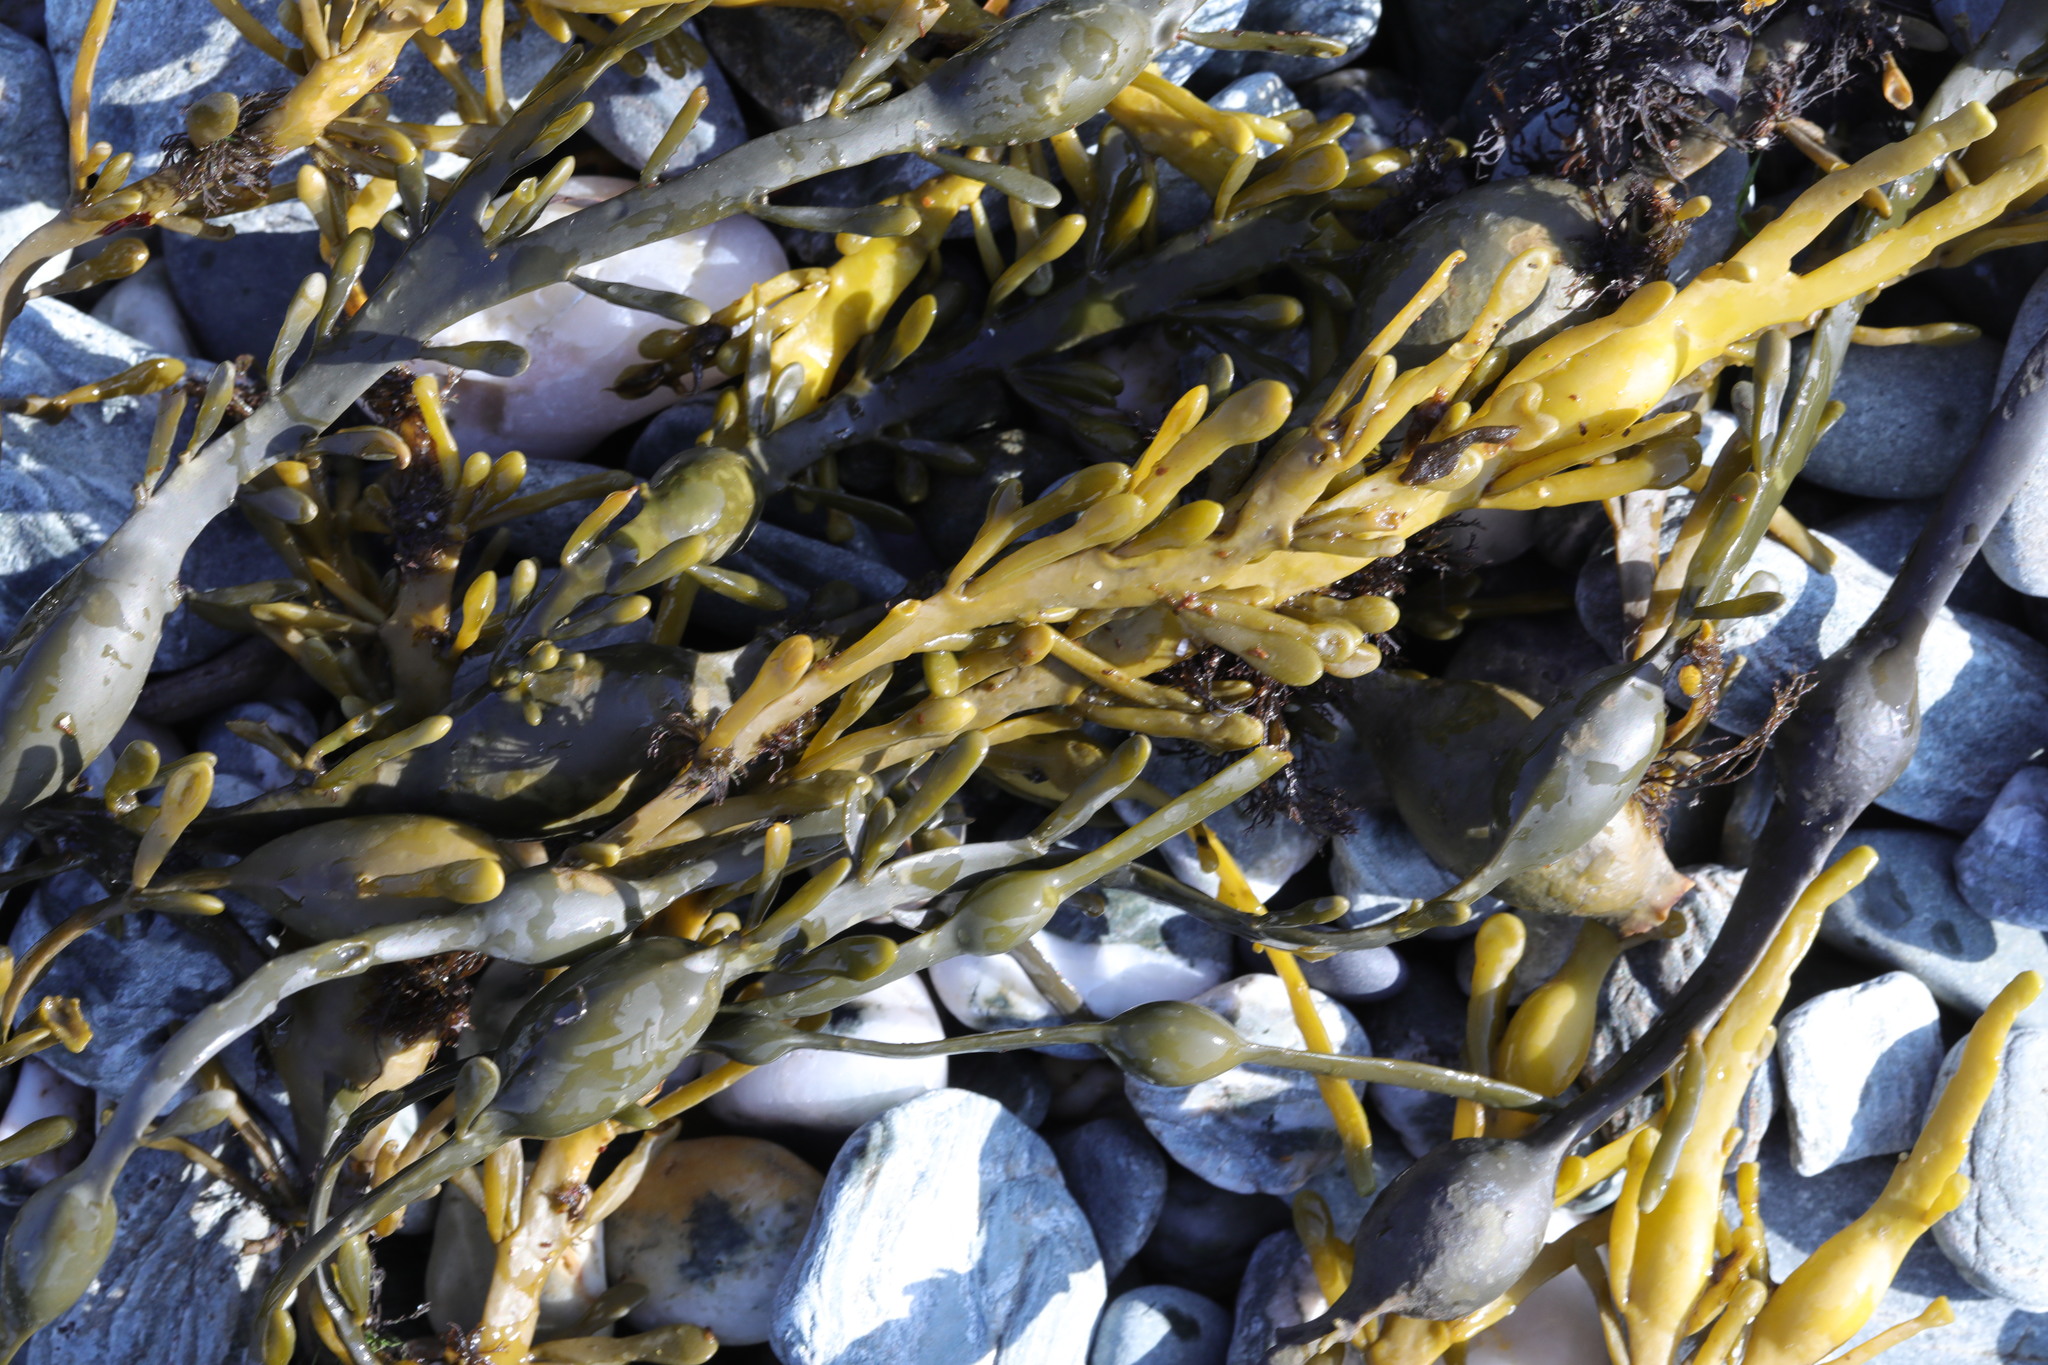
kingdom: Chromista
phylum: Ochrophyta
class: Phaeophyceae
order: Fucales
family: Fucaceae
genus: Ascophyllum
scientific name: Ascophyllum nodosum
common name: Knotted wrack
